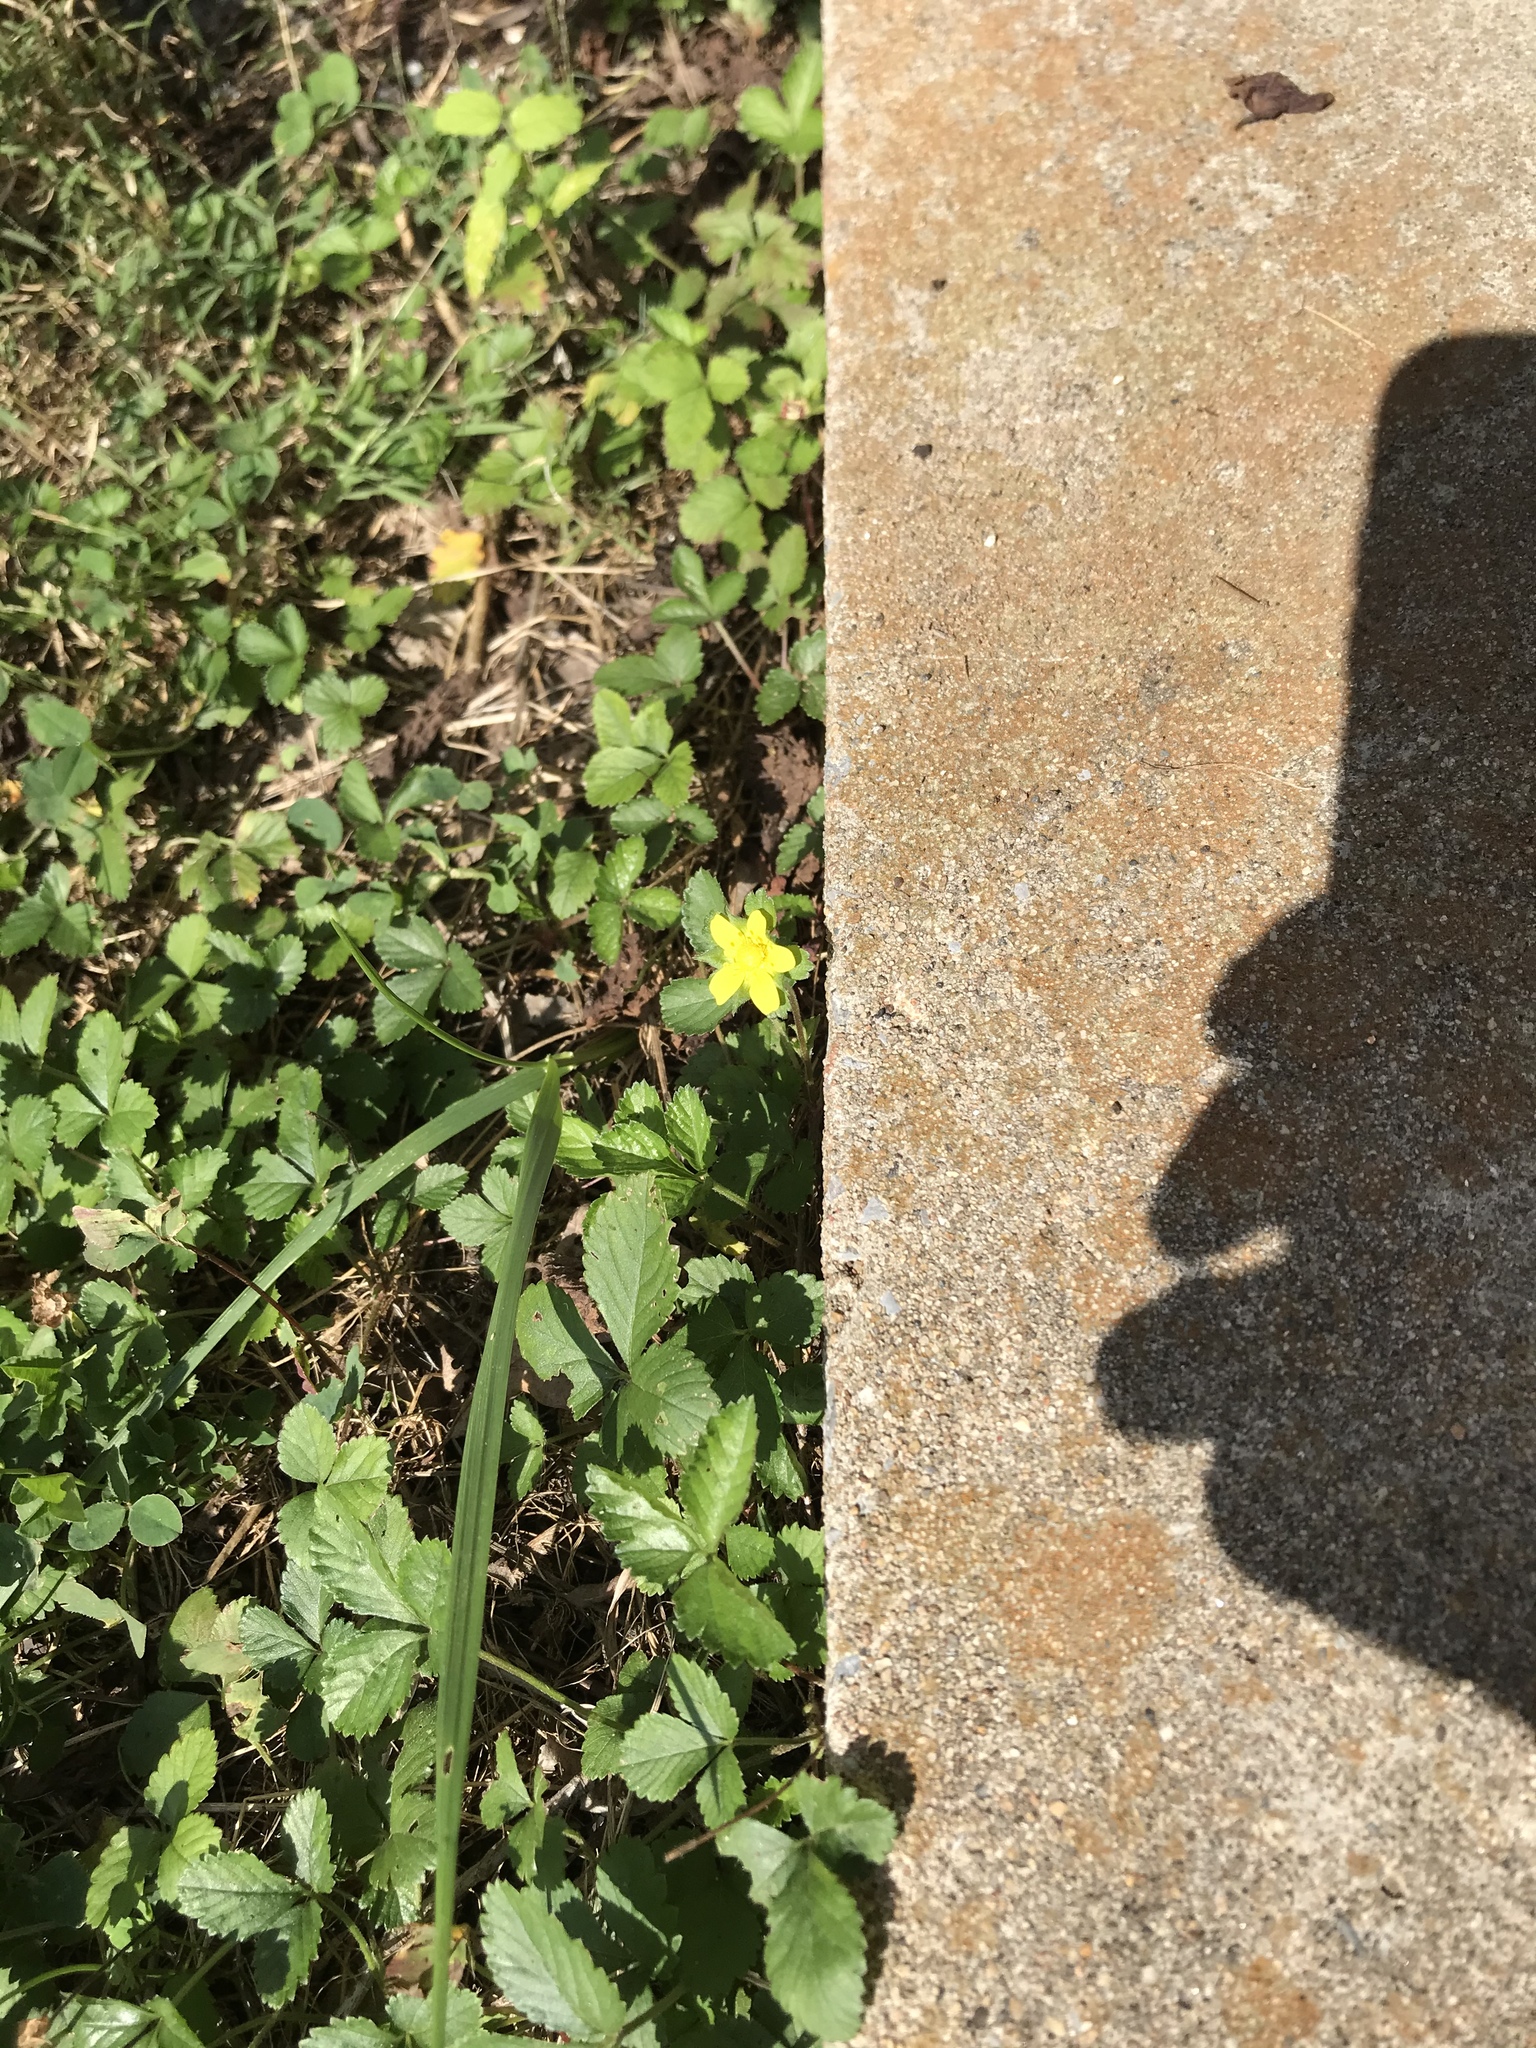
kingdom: Plantae
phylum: Tracheophyta
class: Magnoliopsida
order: Rosales
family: Rosaceae
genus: Potentilla
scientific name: Potentilla indica
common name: Yellow-flowered strawberry
